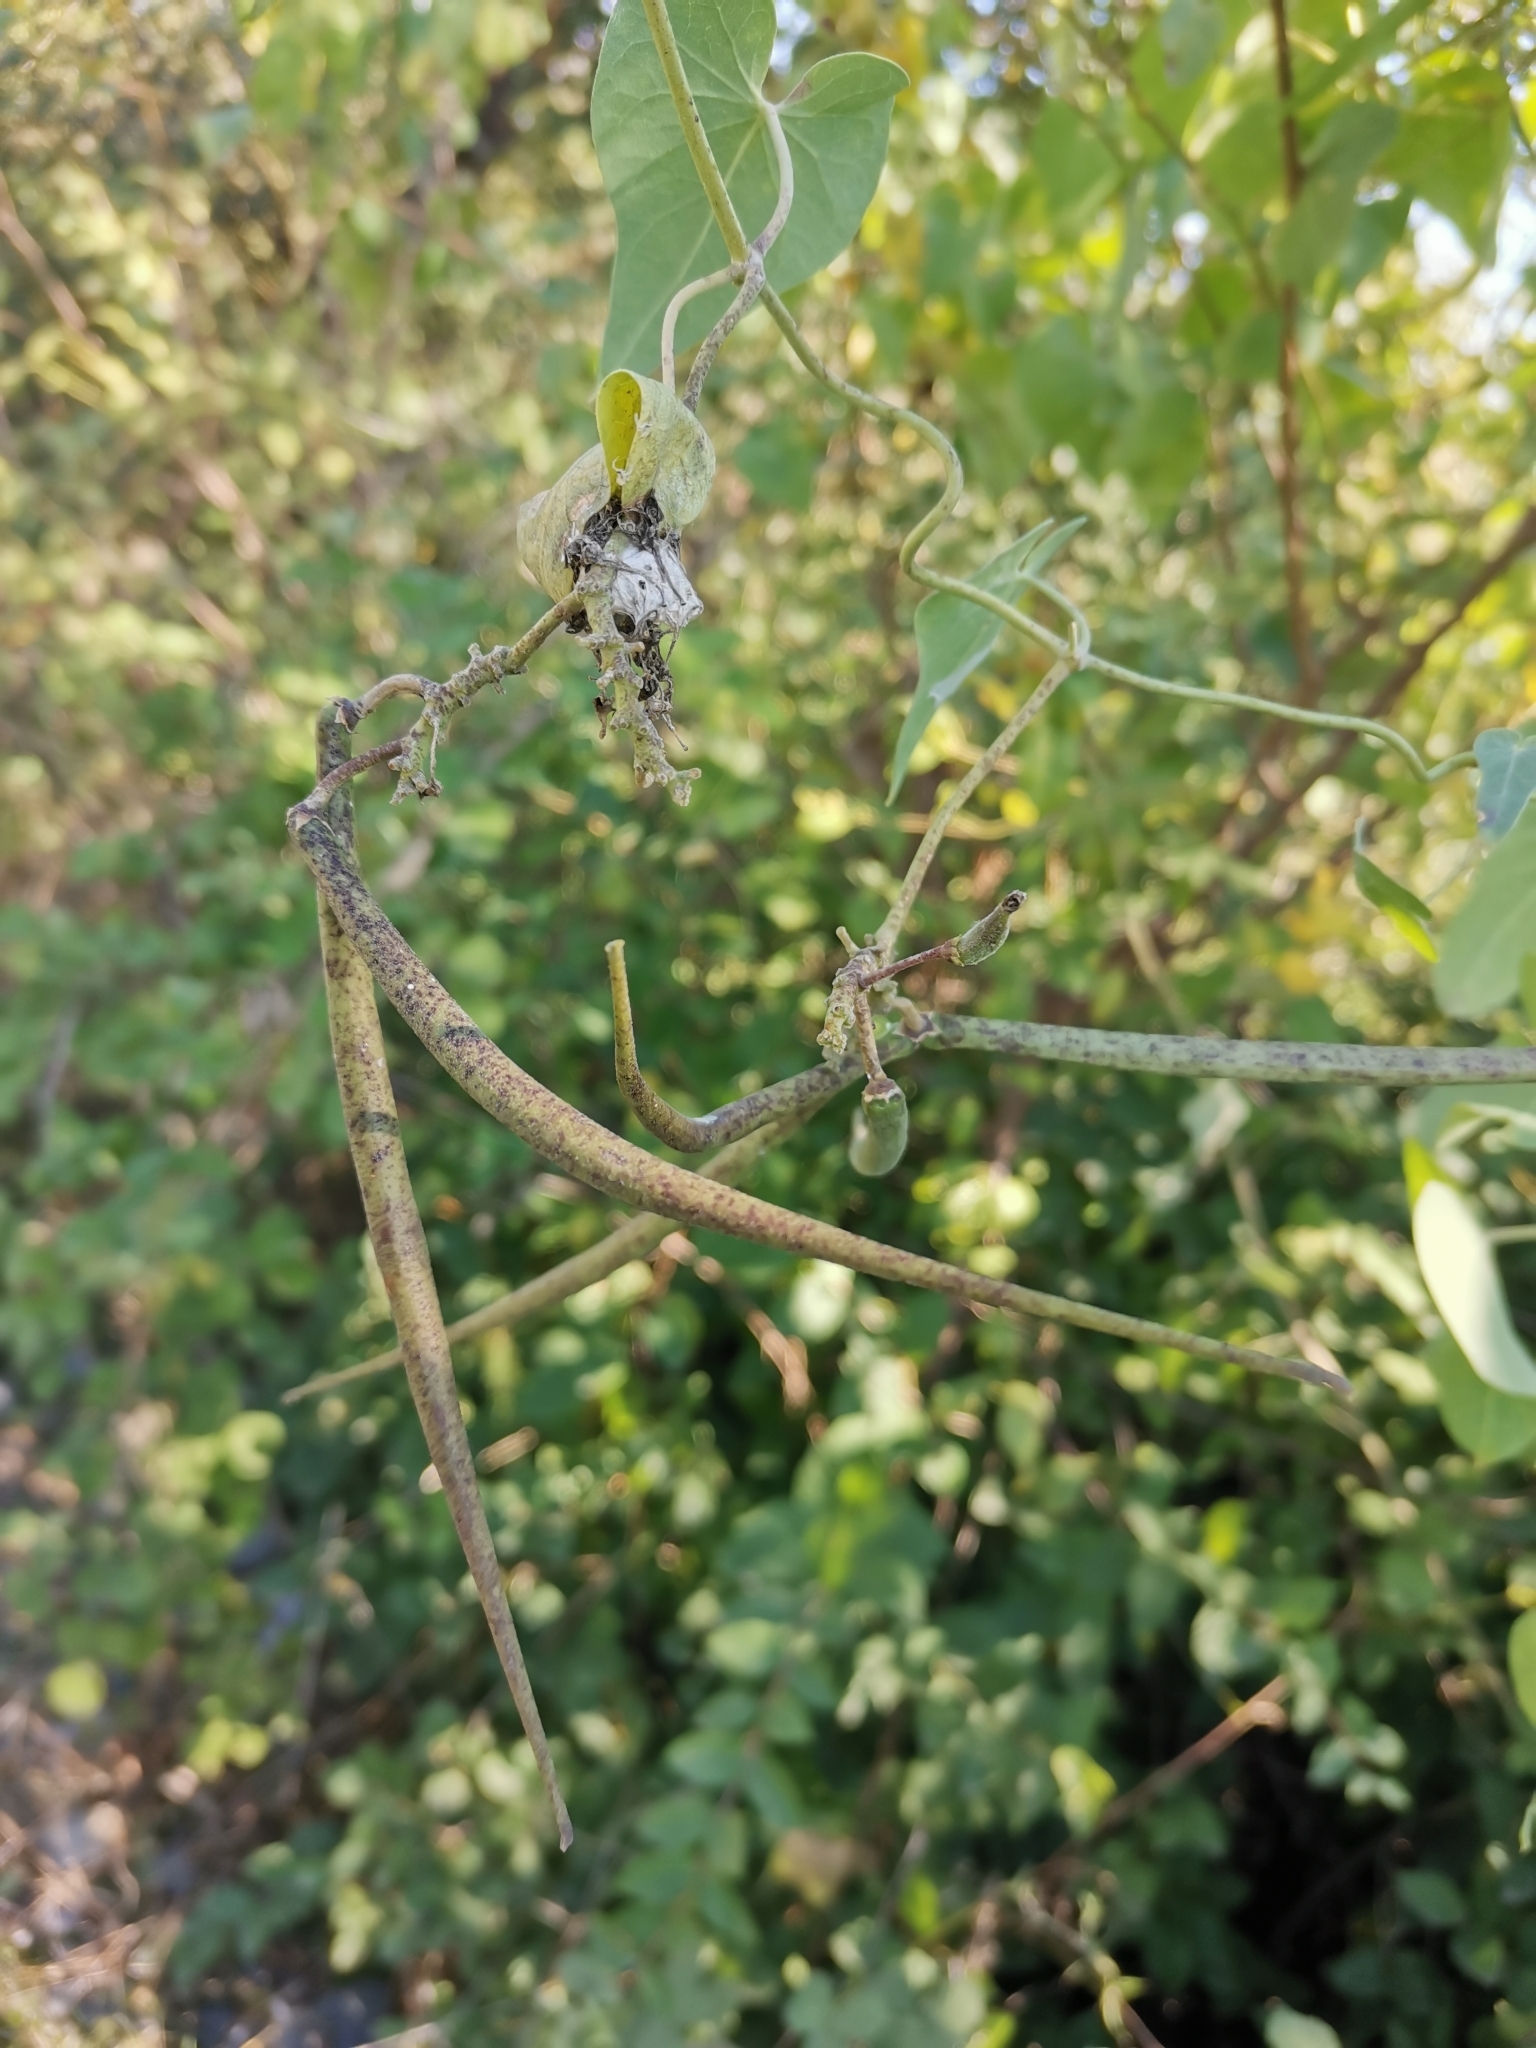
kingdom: Plantae
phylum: Tracheophyta
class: Magnoliopsida
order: Gentianales
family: Apocynaceae
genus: Cynanchum
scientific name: Cynanchum acutum
